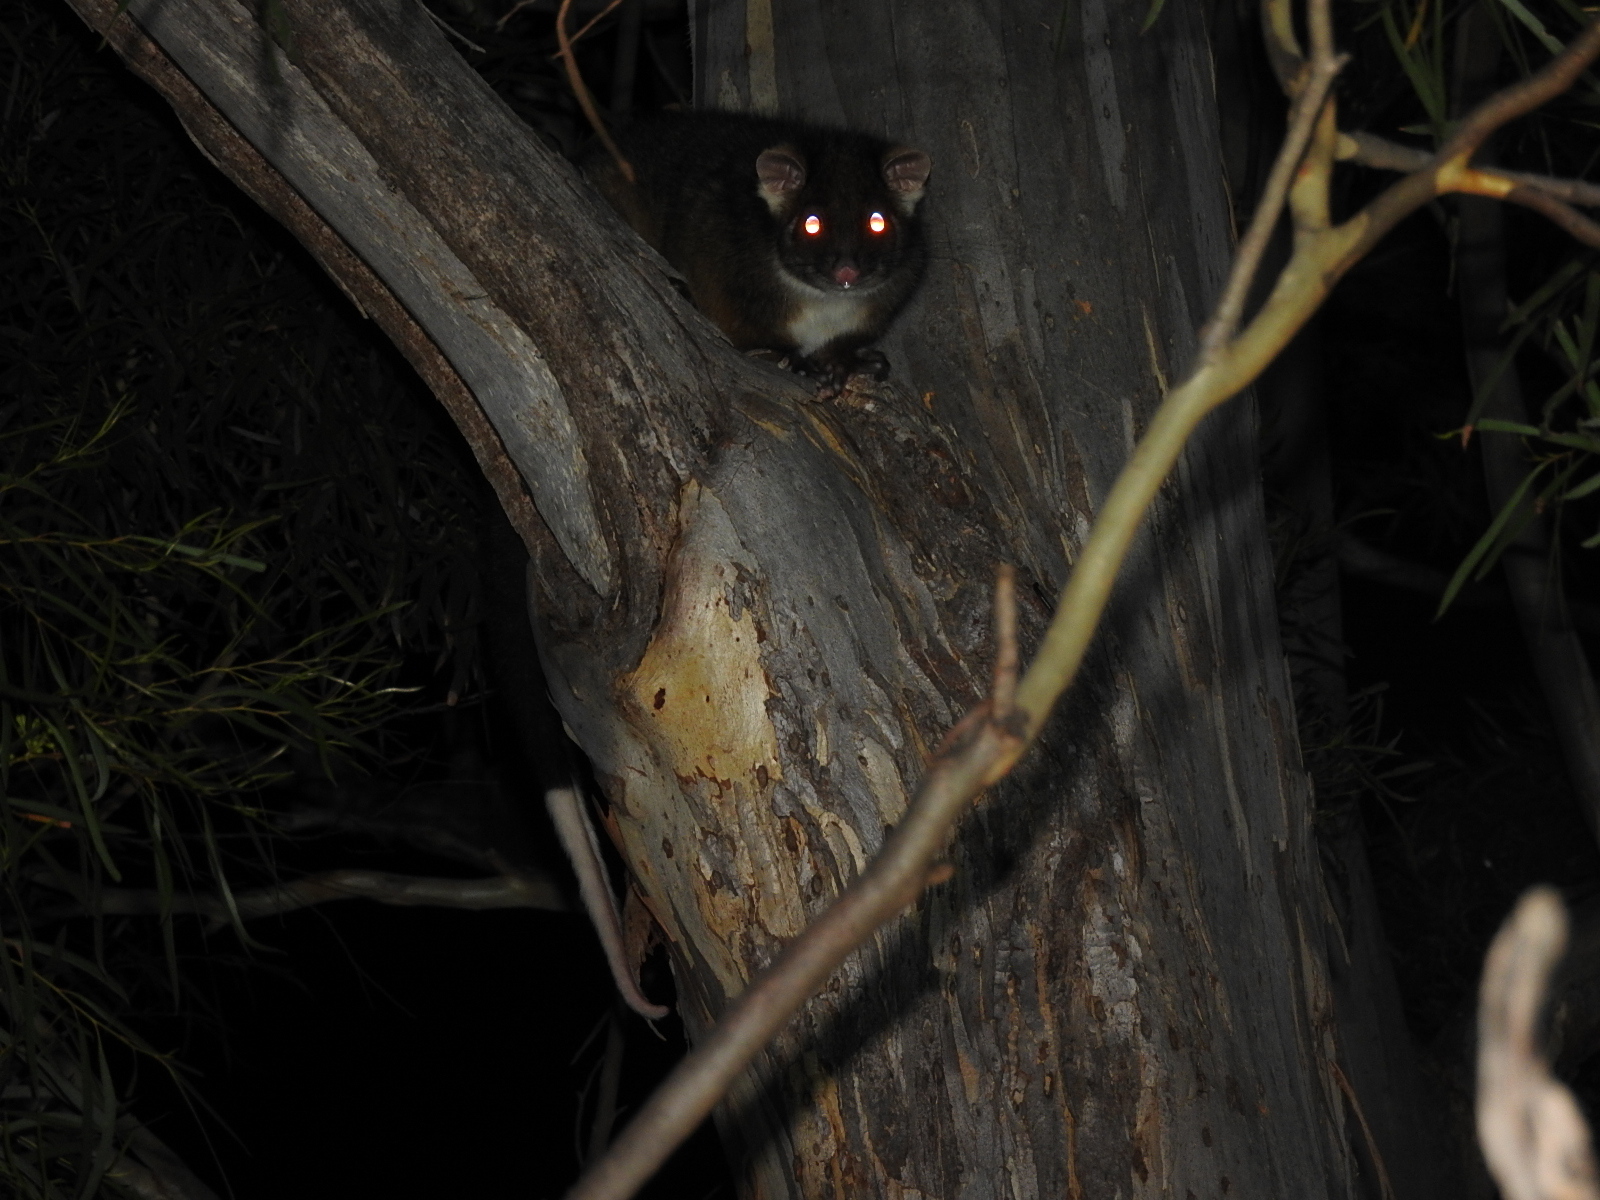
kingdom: Animalia
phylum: Chordata
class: Mammalia
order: Diprotodontia
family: Pseudocheiridae
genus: Pseudocheirus
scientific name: Pseudocheirus peregrinus
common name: Common ringtail possum
